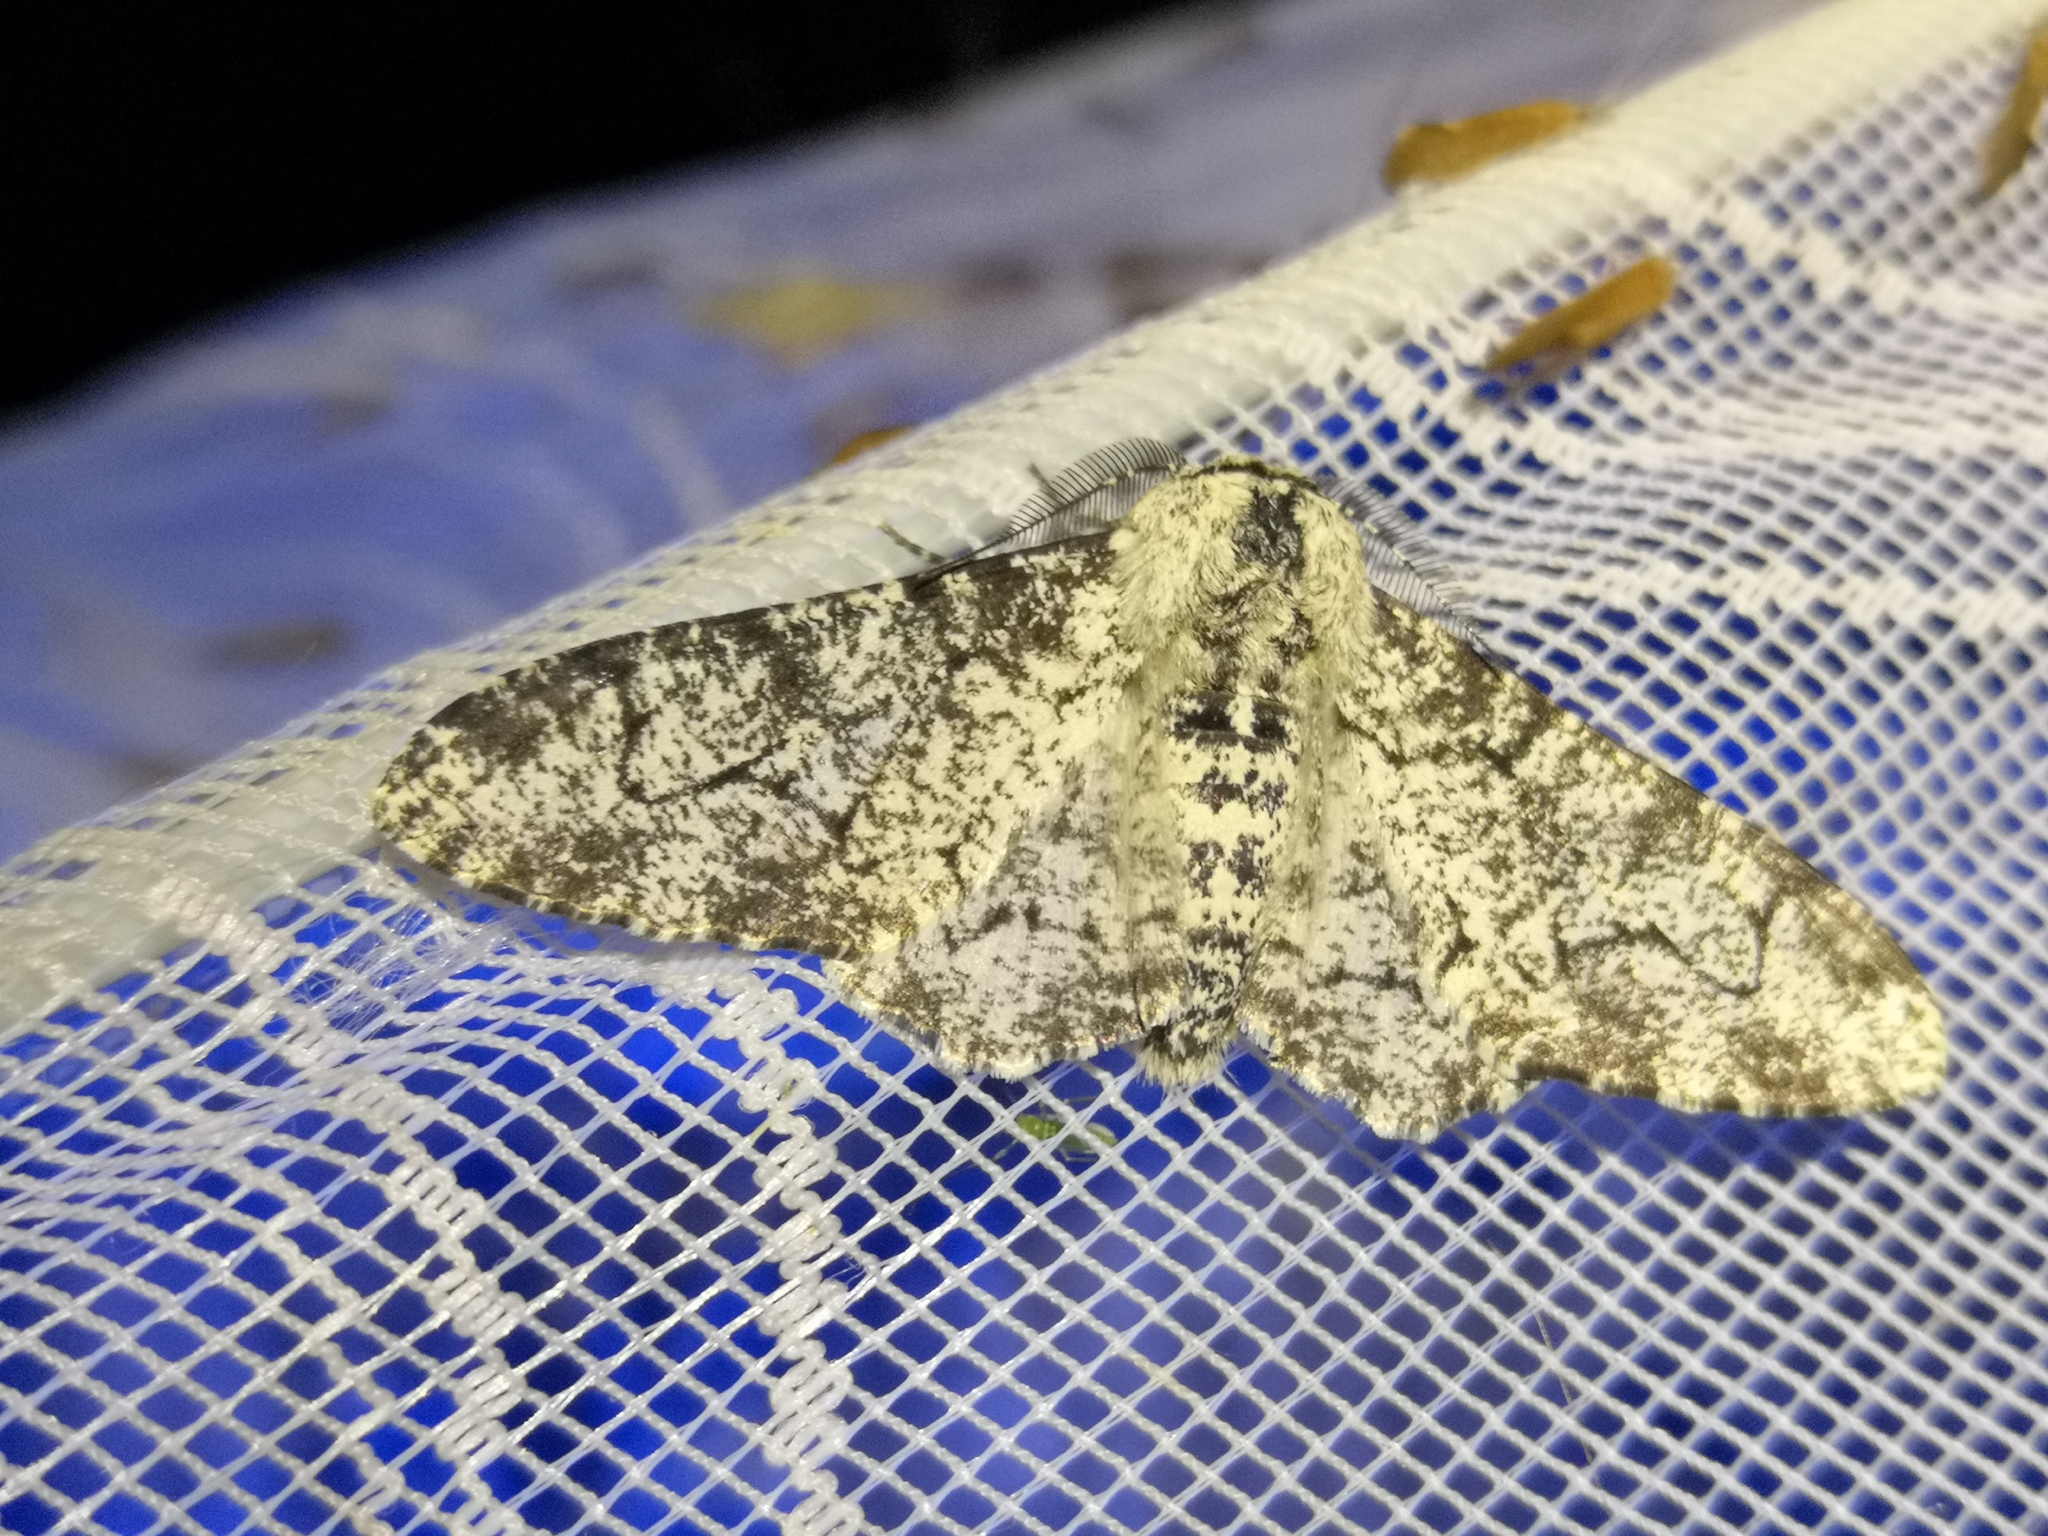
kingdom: Animalia
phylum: Arthropoda
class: Insecta
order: Lepidoptera
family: Geometridae
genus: Biston
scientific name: Biston betularia
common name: Peppered moth
